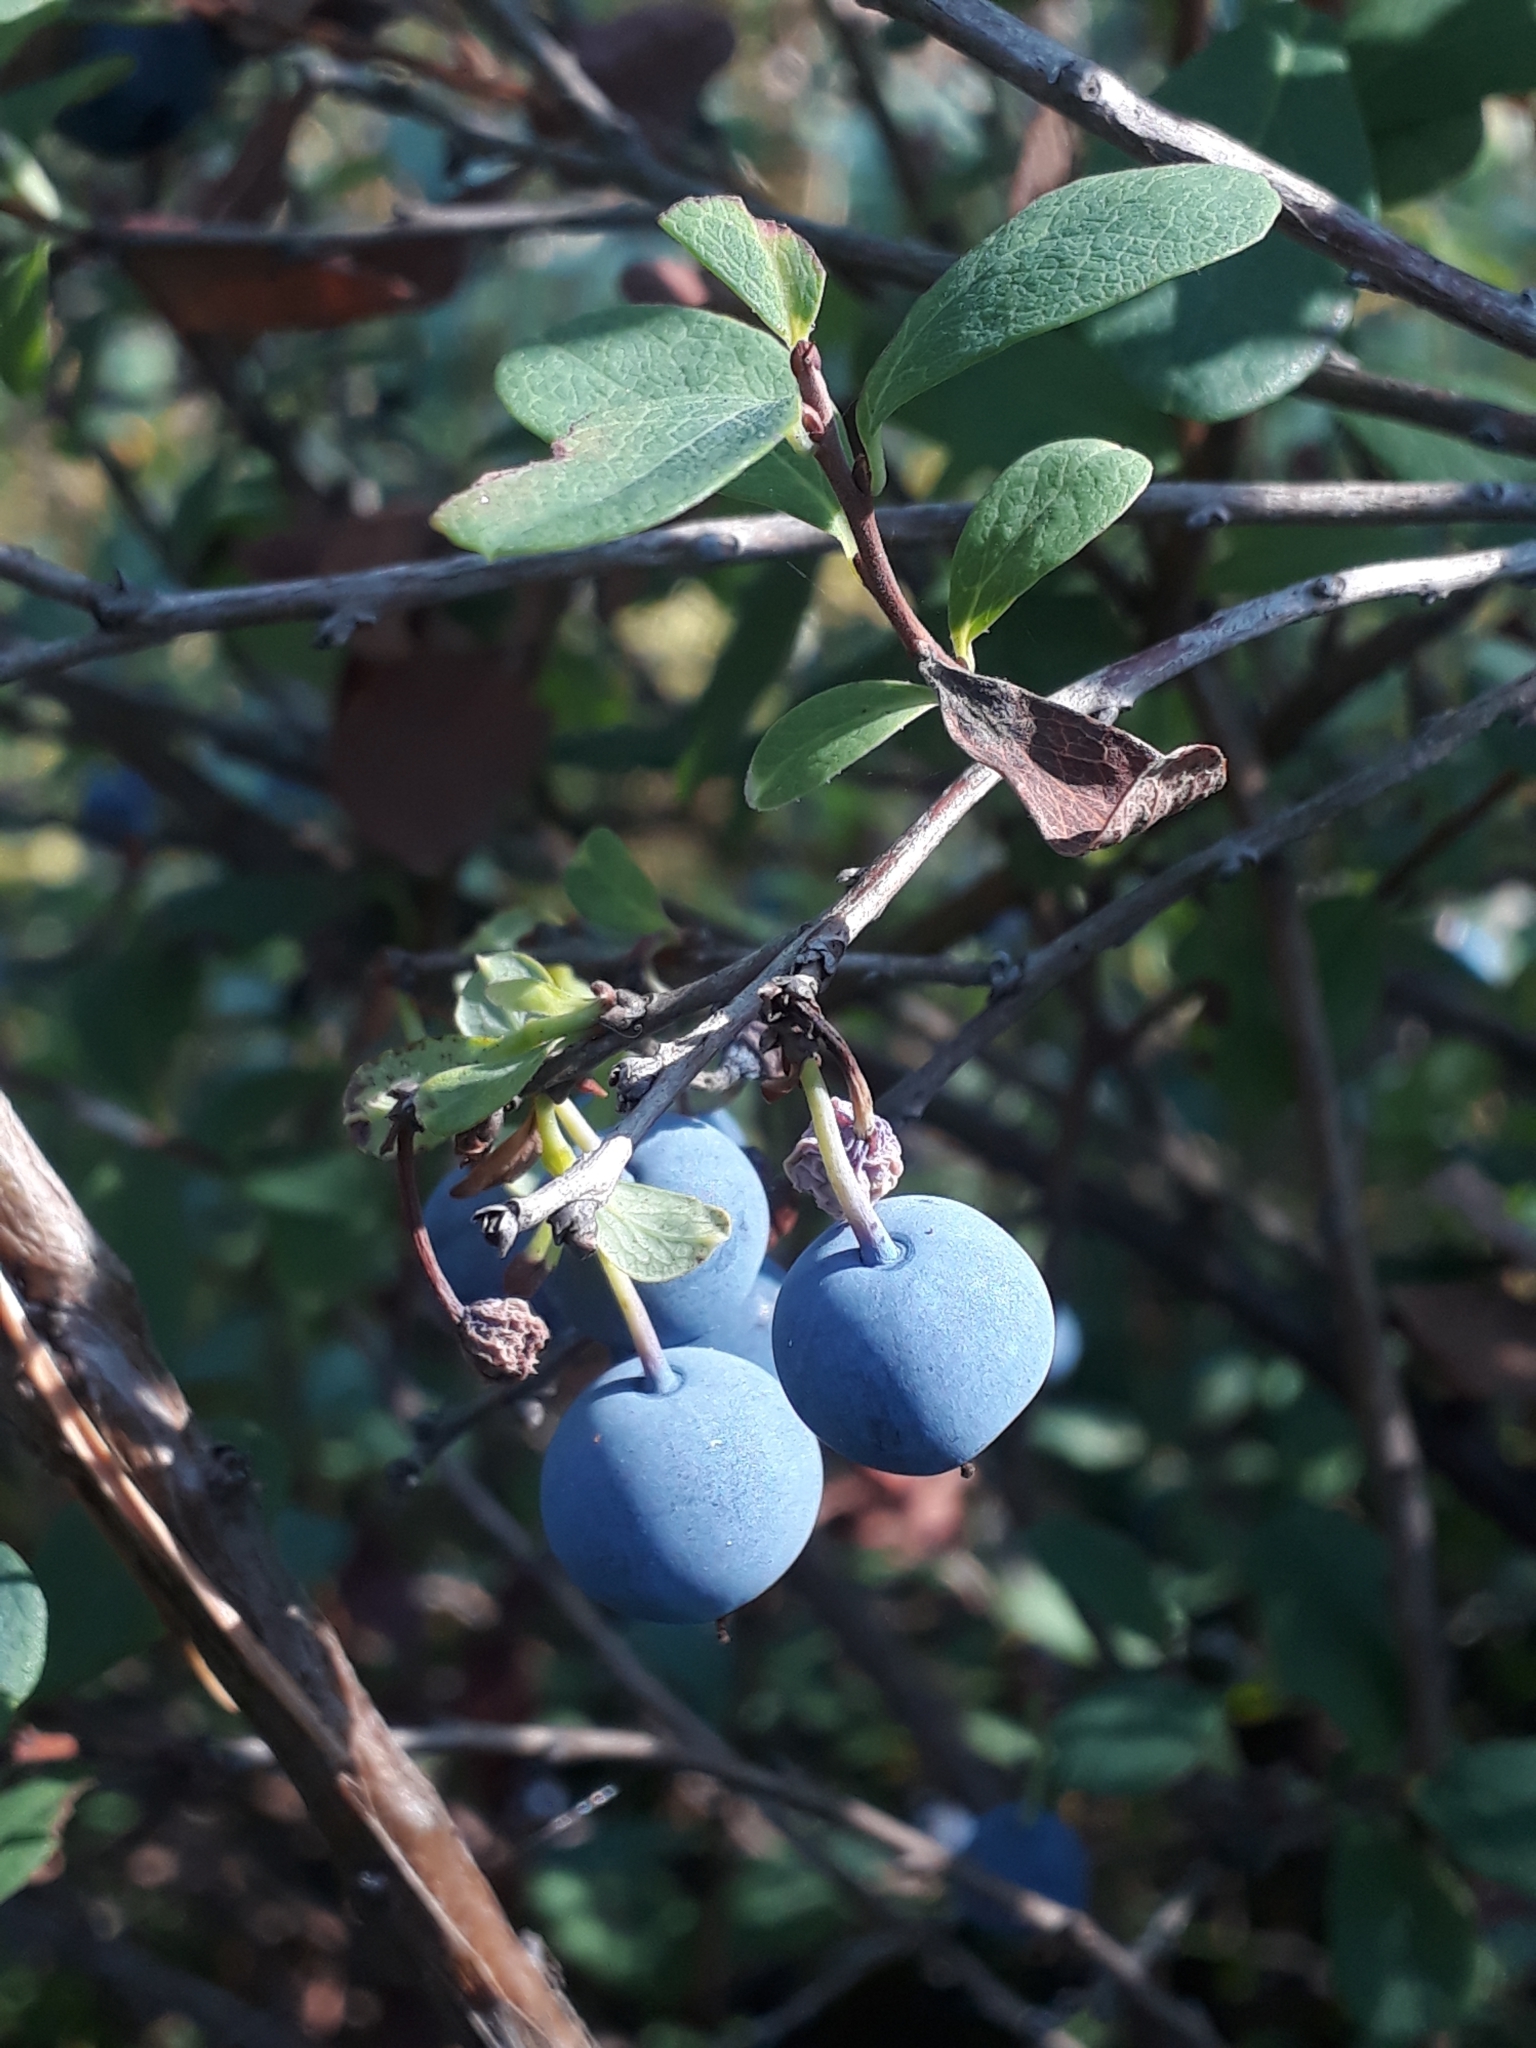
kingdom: Plantae
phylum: Tracheophyta
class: Magnoliopsida
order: Ericales
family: Ericaceae
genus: Vaccinium
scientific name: Vaccinium uliginosum
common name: Bog bilberry
